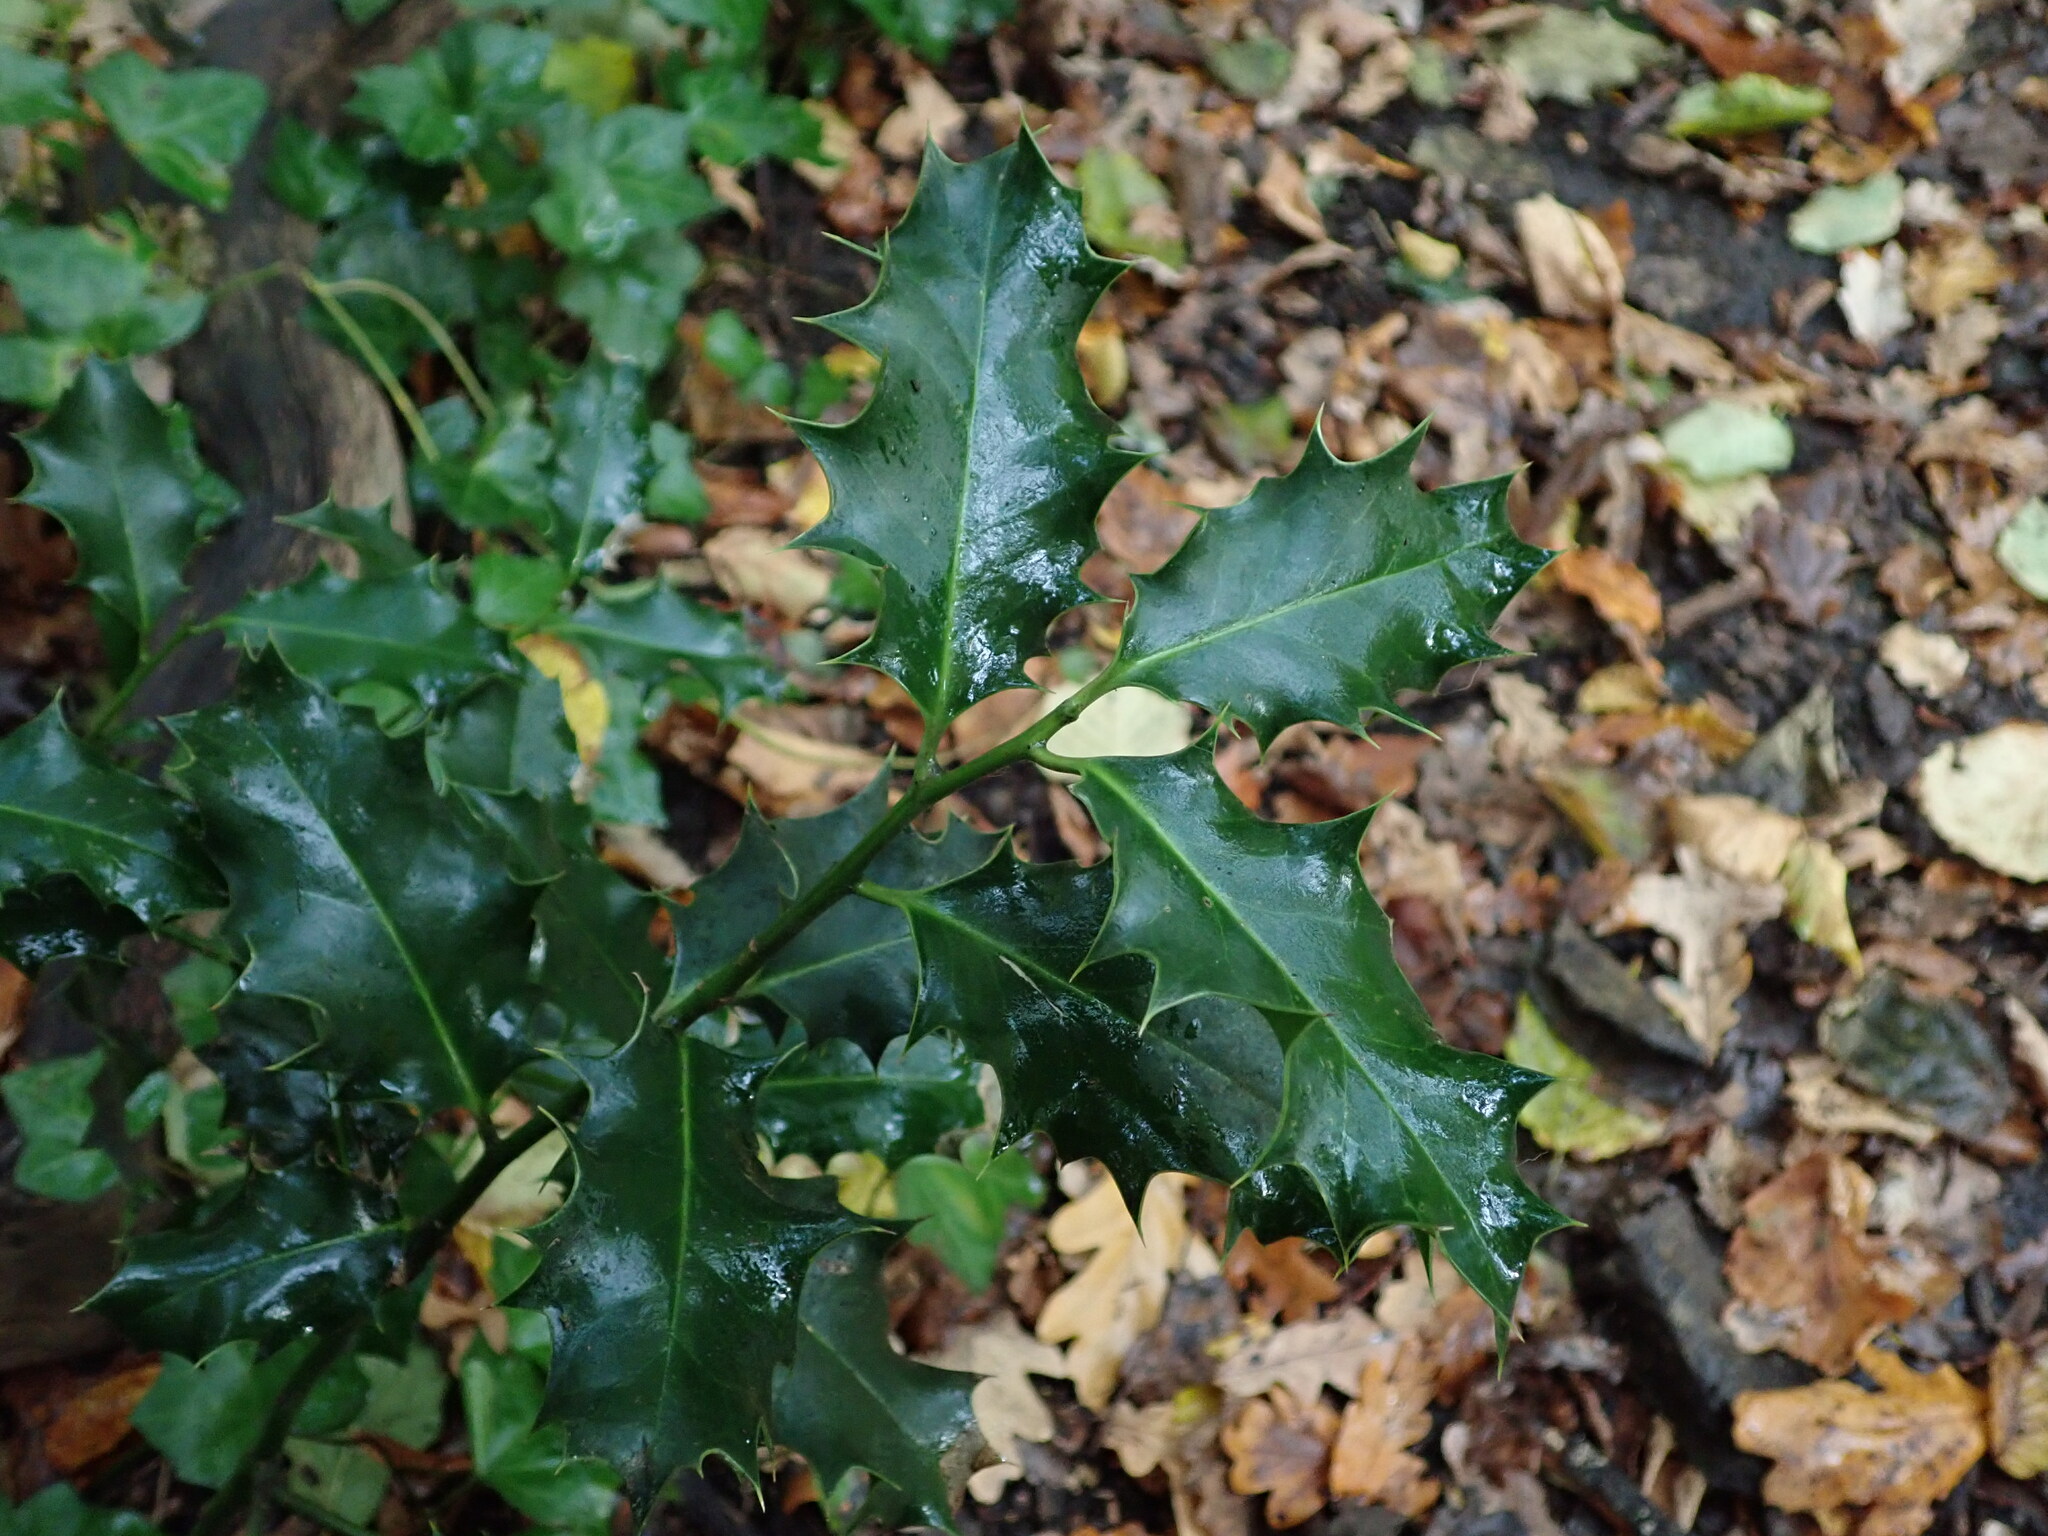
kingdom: Plantae
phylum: Tracheophyta
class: Magnoliopsida
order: Aquifoliales
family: Aquifoliaceae
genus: Ilex
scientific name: Ilex aquifolium
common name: English holly
